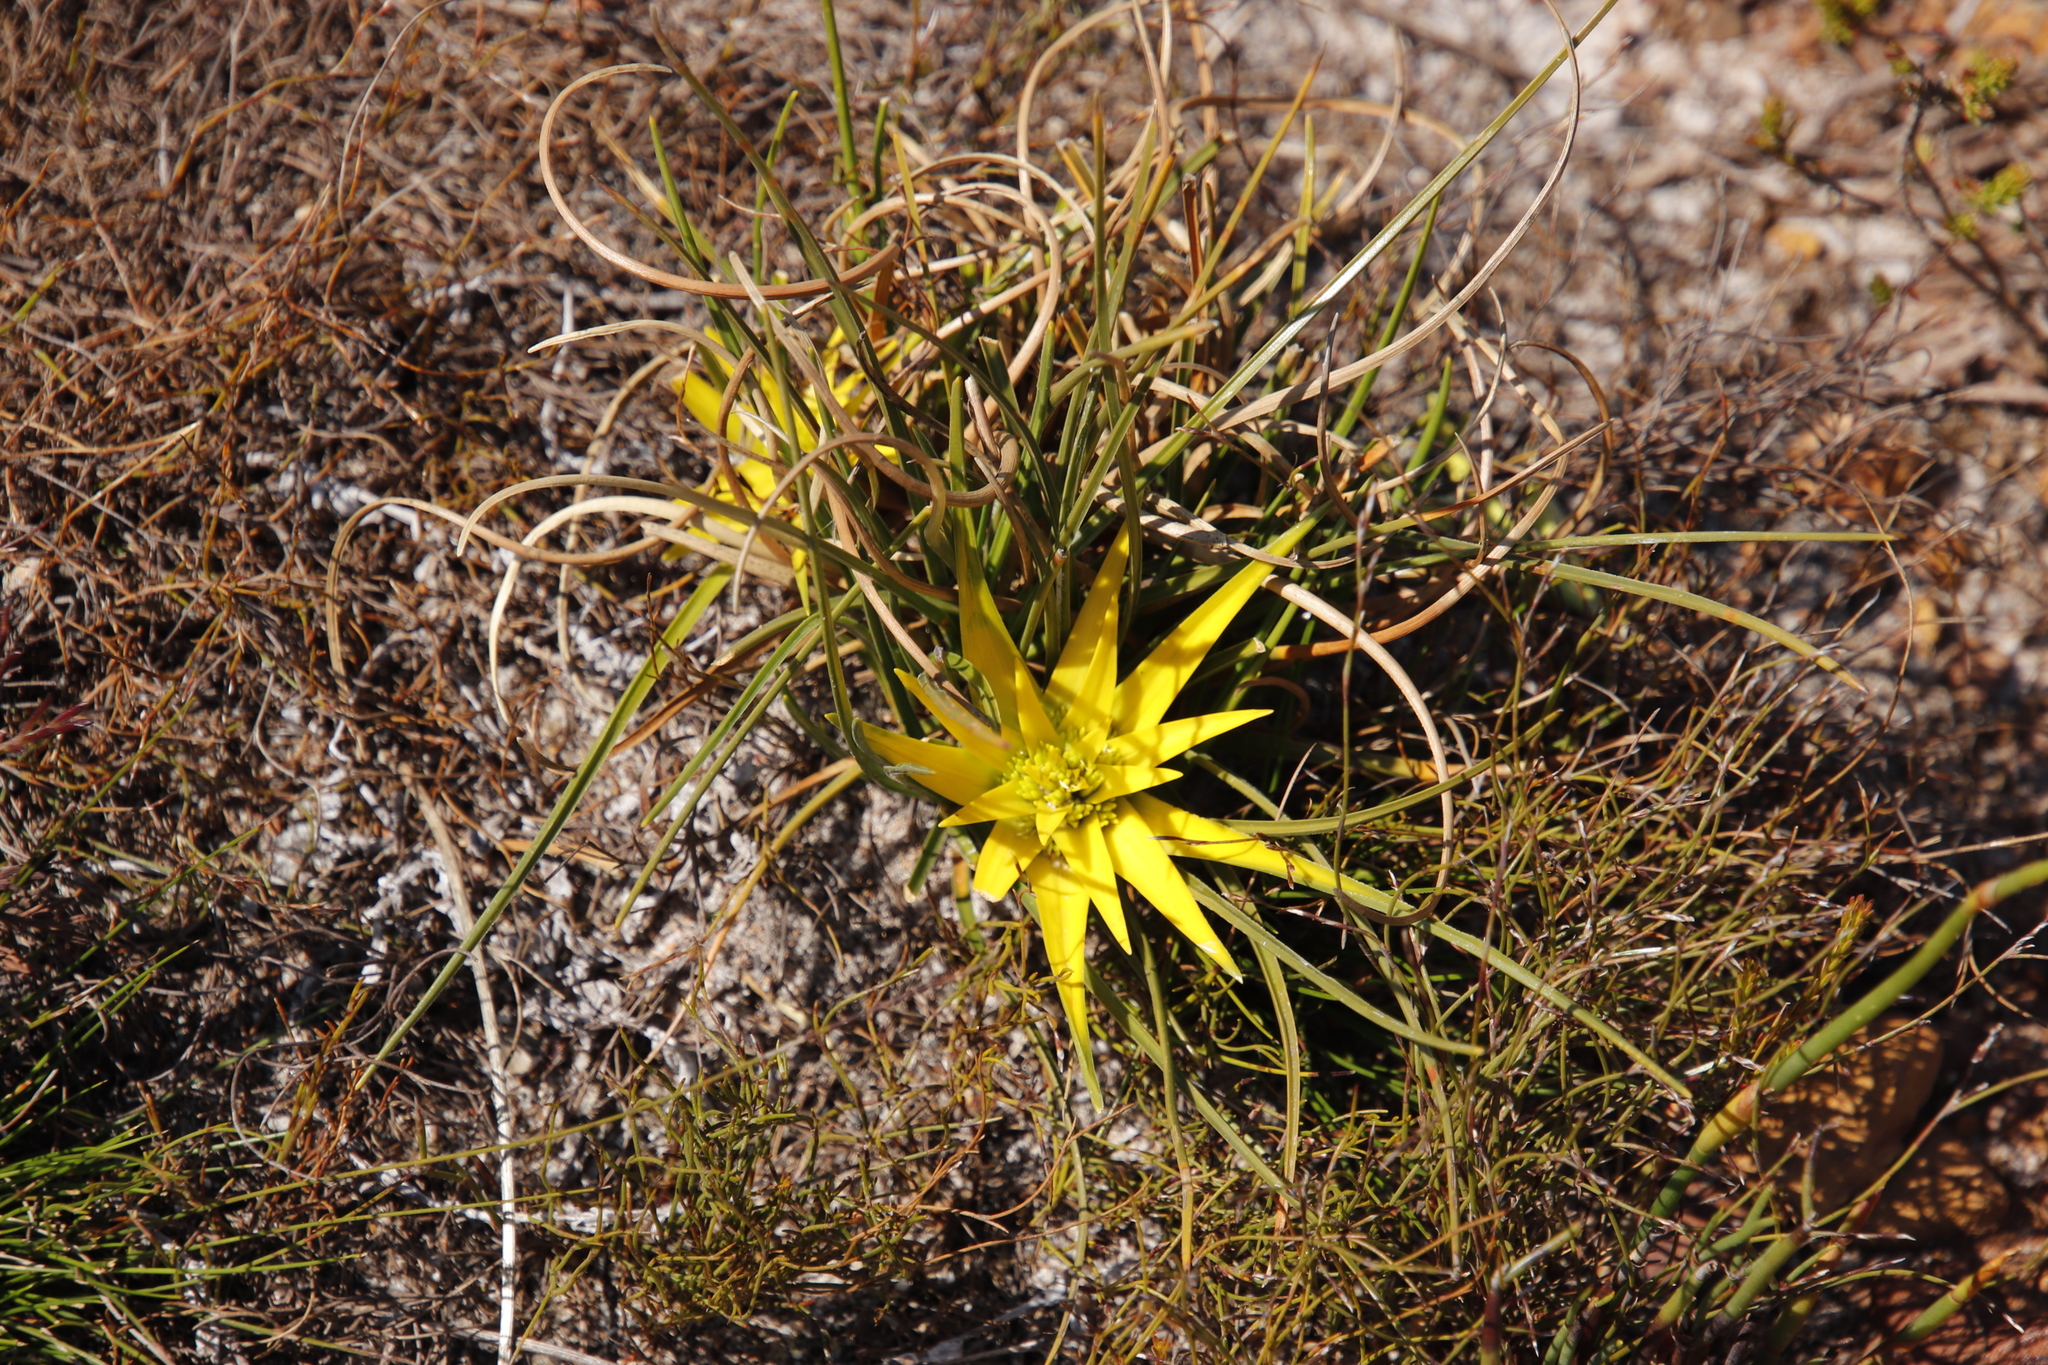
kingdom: Plantae
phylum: Tracheophyta
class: Liliopsida
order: Poales
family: Cyperaceae
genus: Ficinia
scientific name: Ficinia radiata
